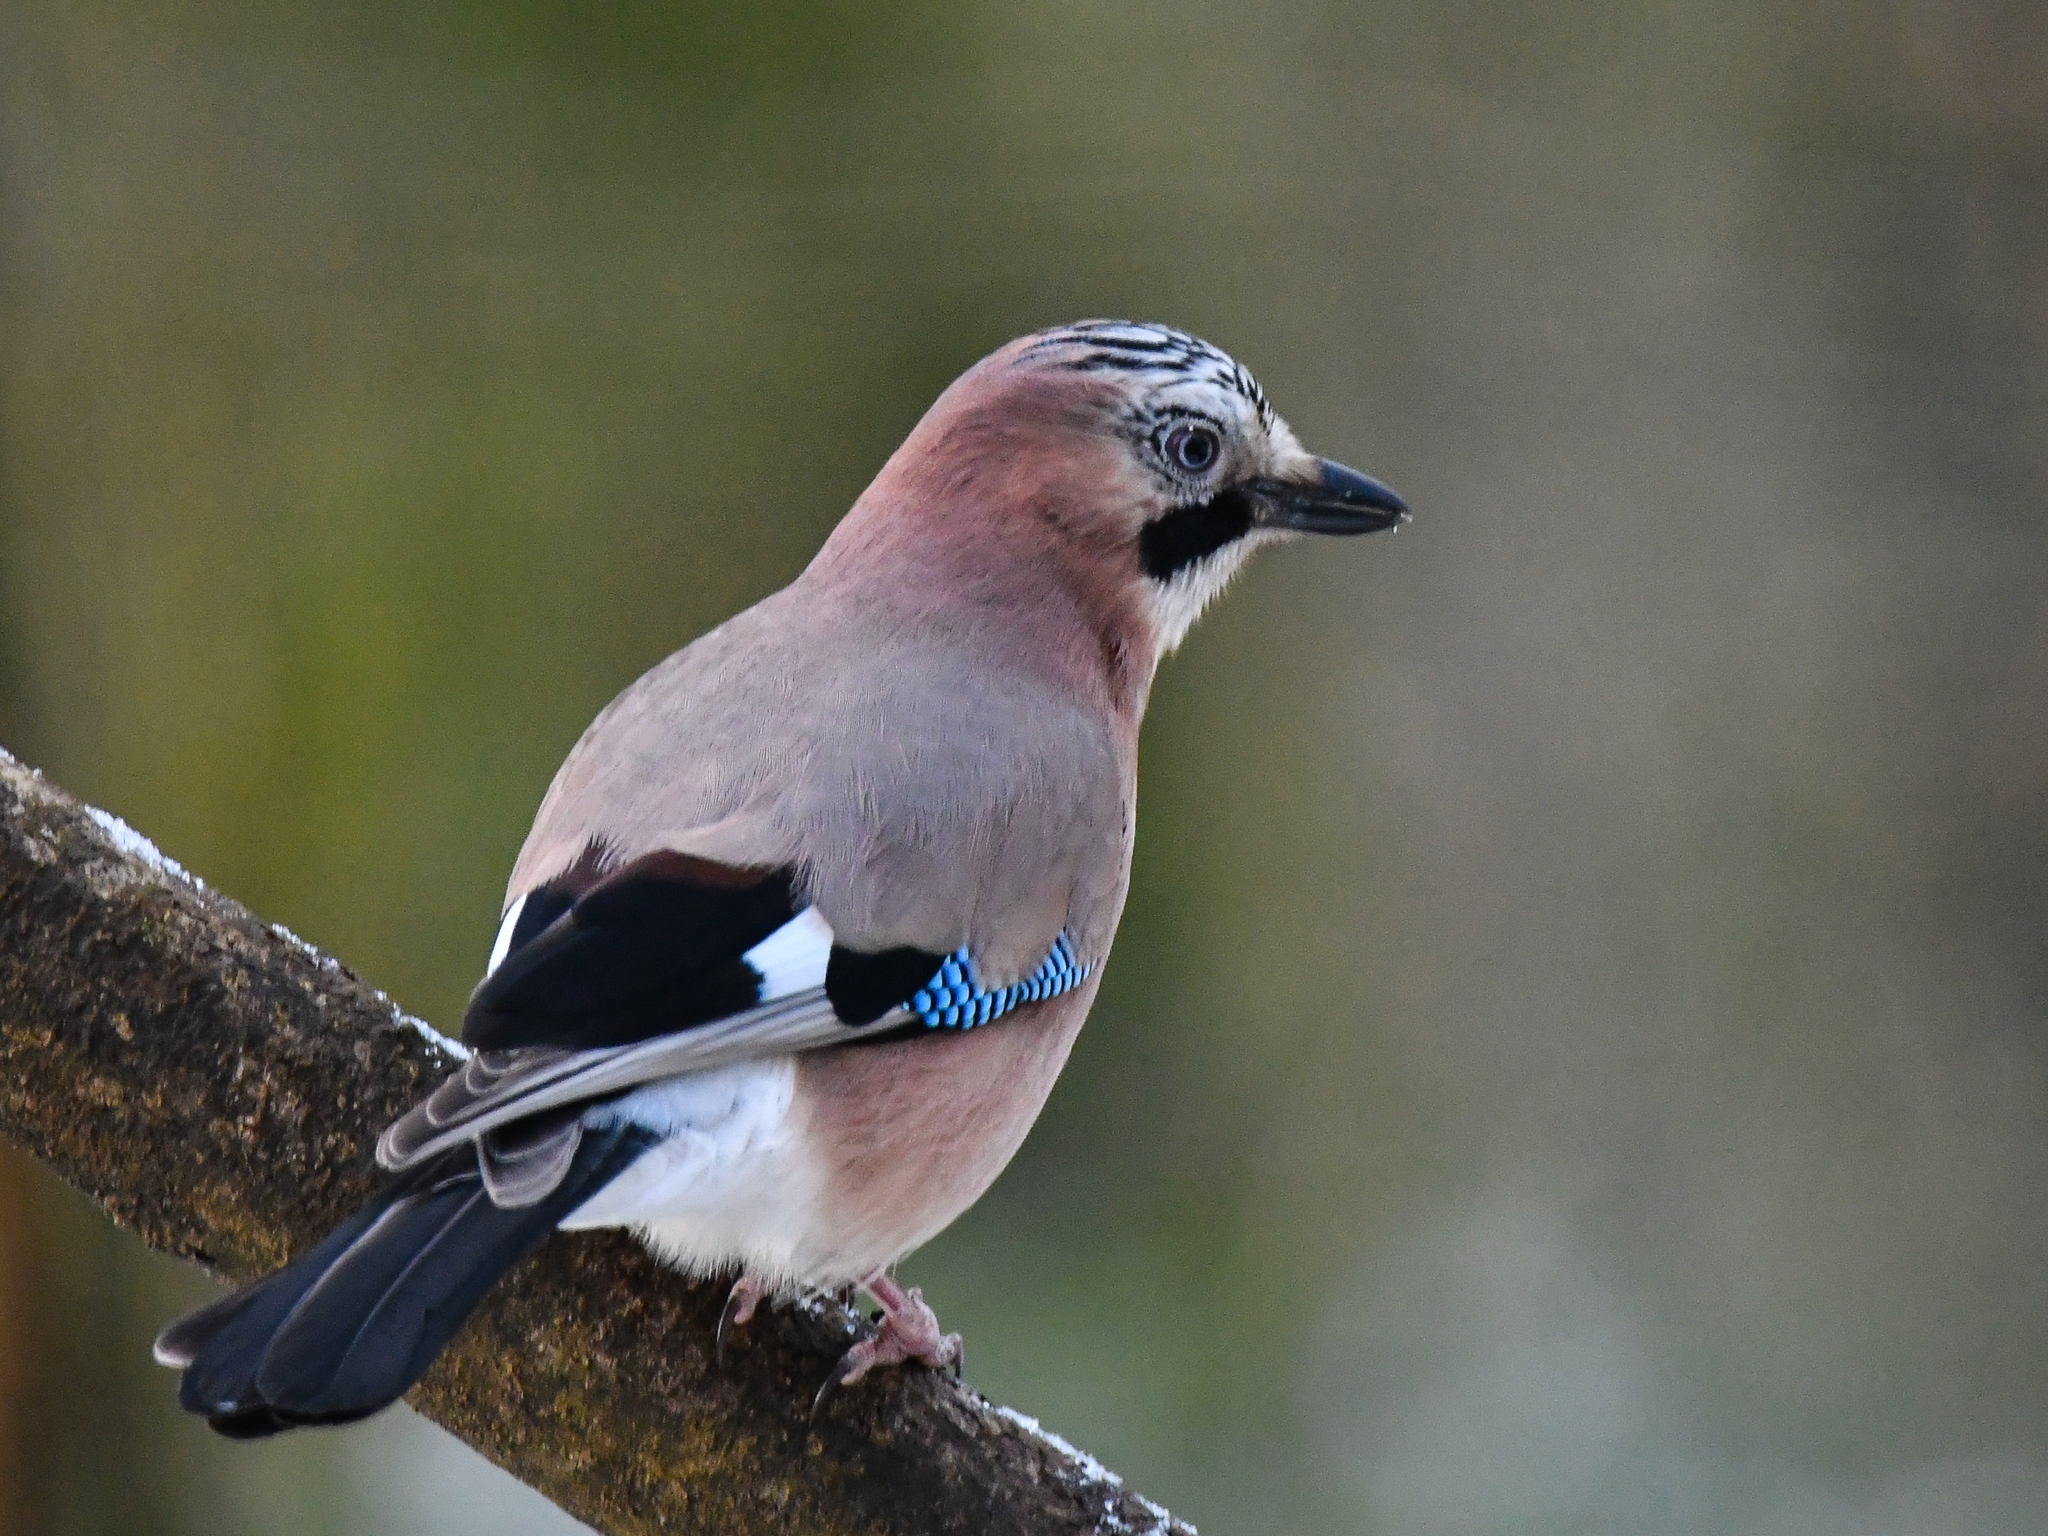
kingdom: Animalia
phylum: Chordata
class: Aves
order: Passeriformes
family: Corvidae
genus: Garrulus
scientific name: Garrulus glandarius
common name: Eurasian jay
